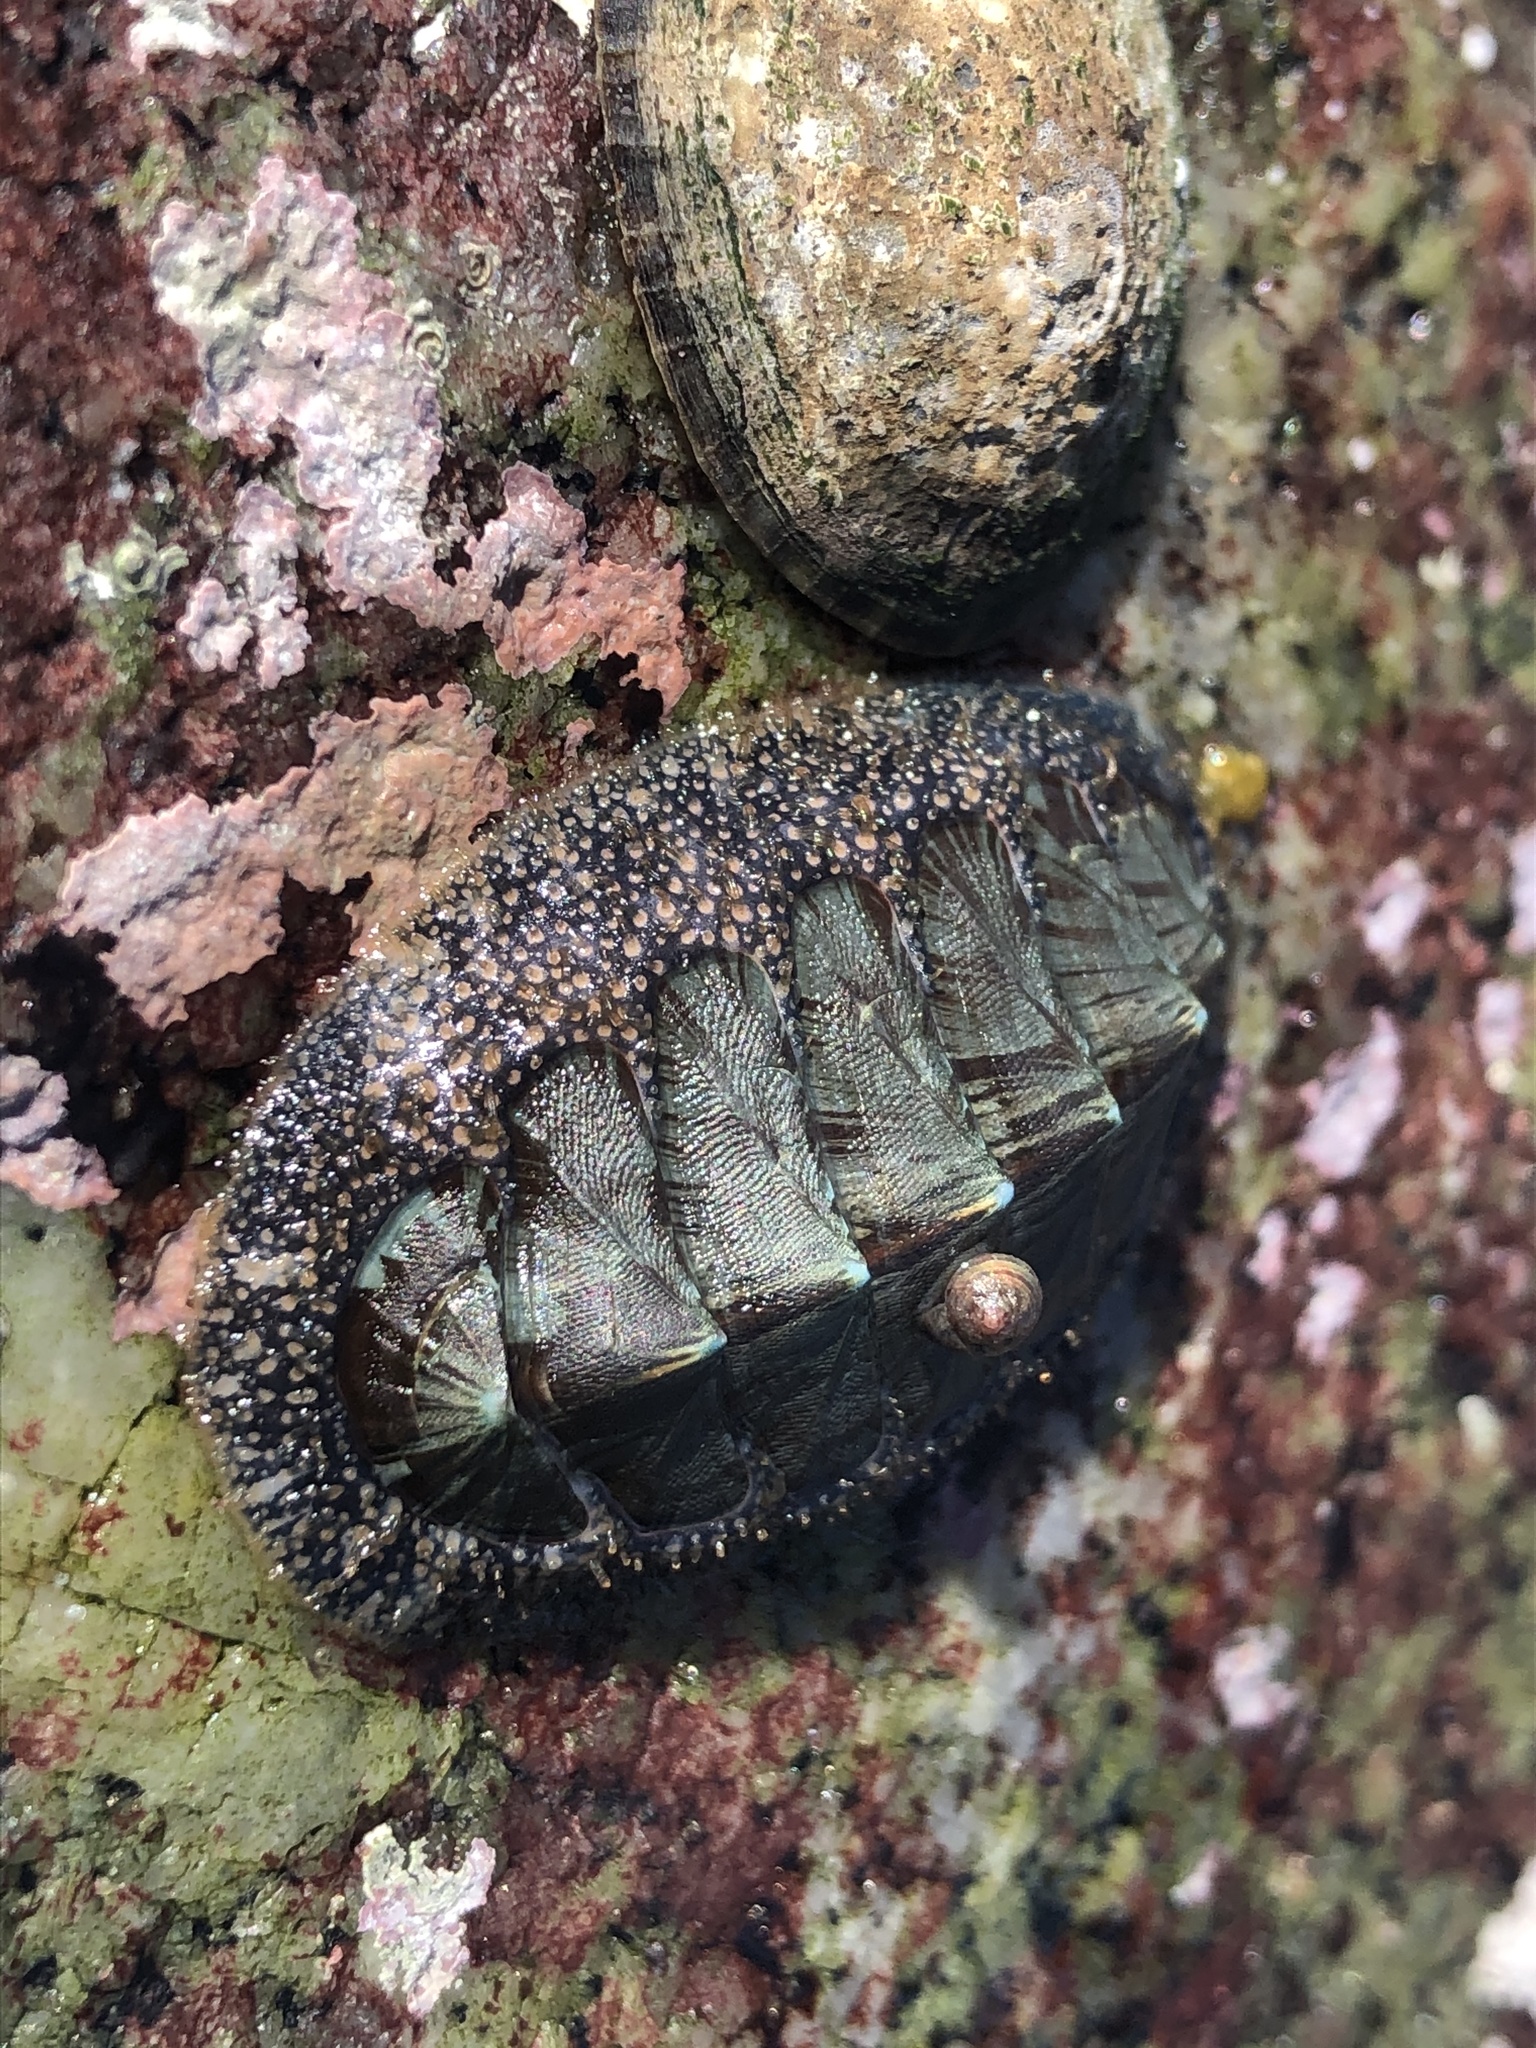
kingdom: Animalia
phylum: Mollusca
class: Polyplacophora
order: Chitonida
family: Mopaliidae
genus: Mopalia
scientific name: Mopalia lignosa
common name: Woody chiton
